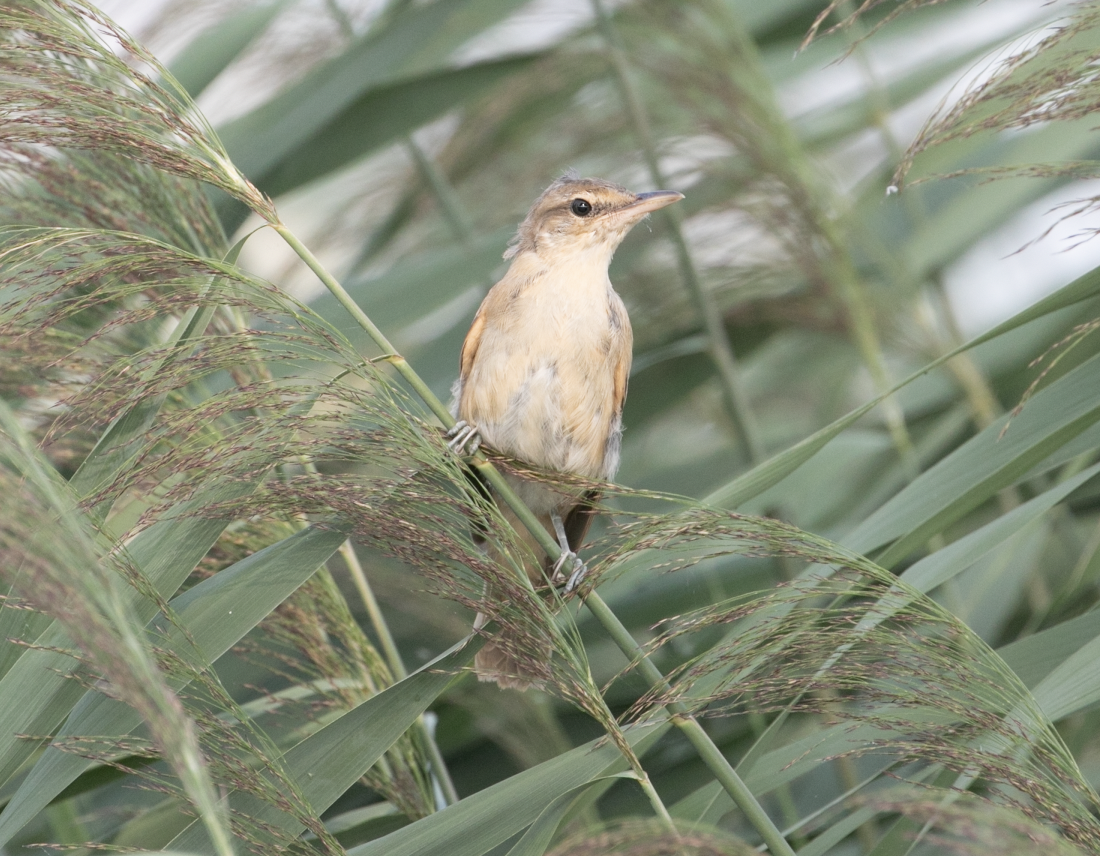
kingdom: Animalia
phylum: Chordata
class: Aves
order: Passeriformes
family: Acrocephalidae
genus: Acrocephalus
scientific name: Acrocephalus arundinaceus
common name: Great reed warbler
